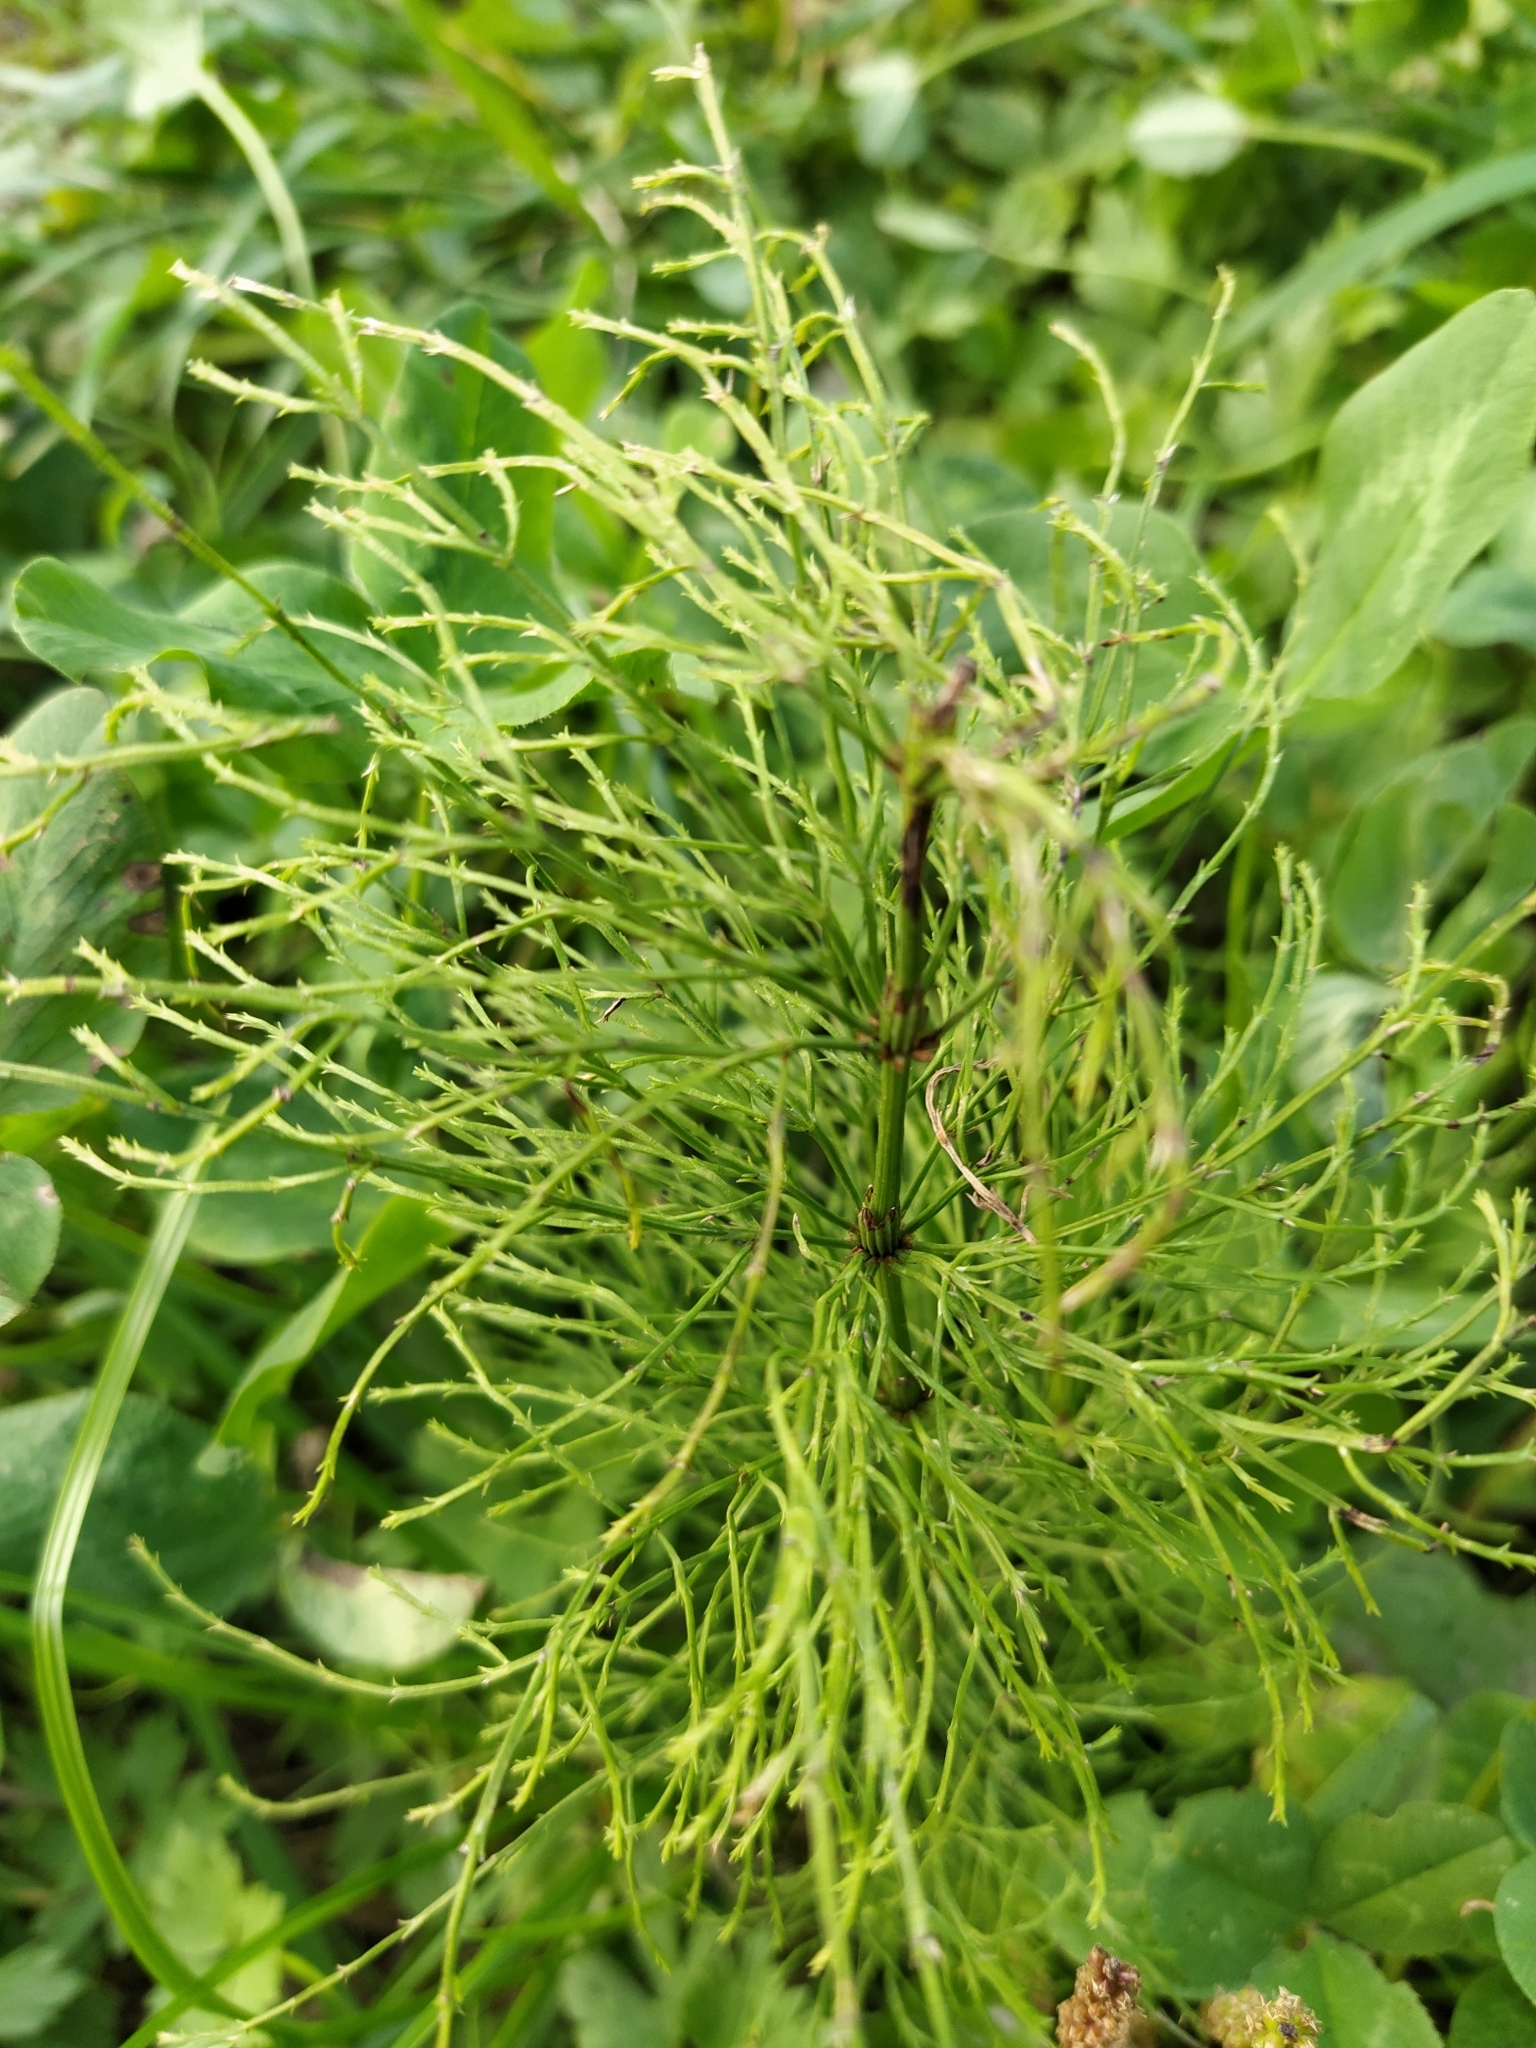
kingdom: Plantae
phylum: Tracheophyta
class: Polypodiopsida
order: Equisetales
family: Equisetaceae
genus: Equisetum
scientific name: Equisetum sylvaticum
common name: Wood horsetail
